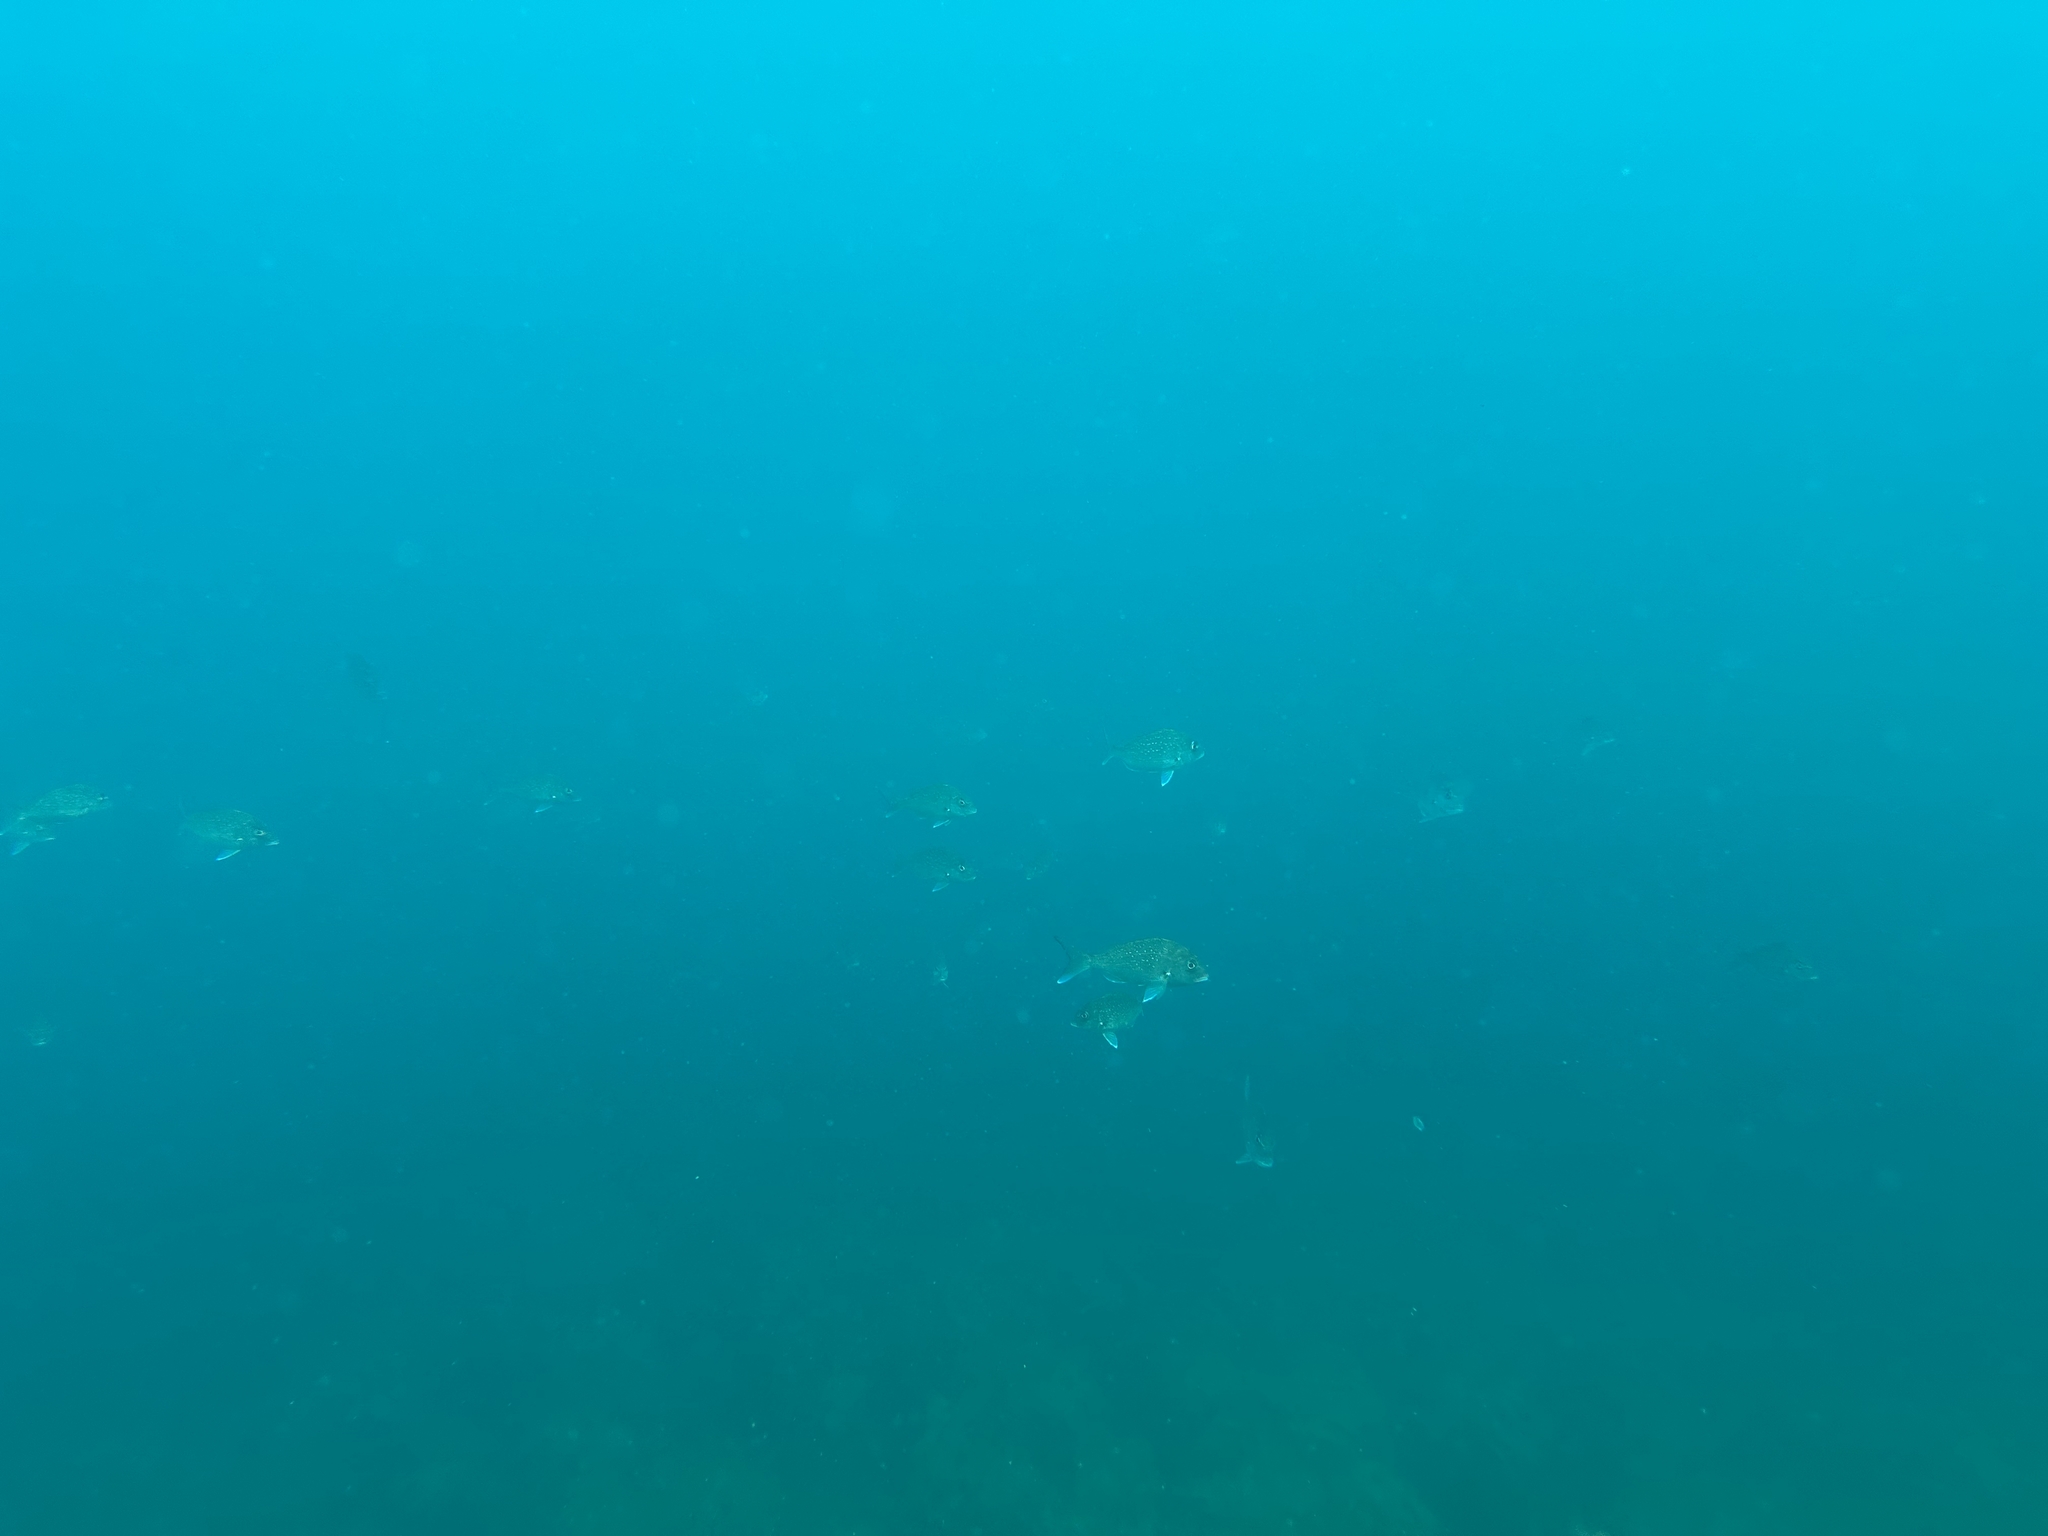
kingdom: Animalia
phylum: Chordata
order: Perciformes
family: Sparidae
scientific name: Sparidae
